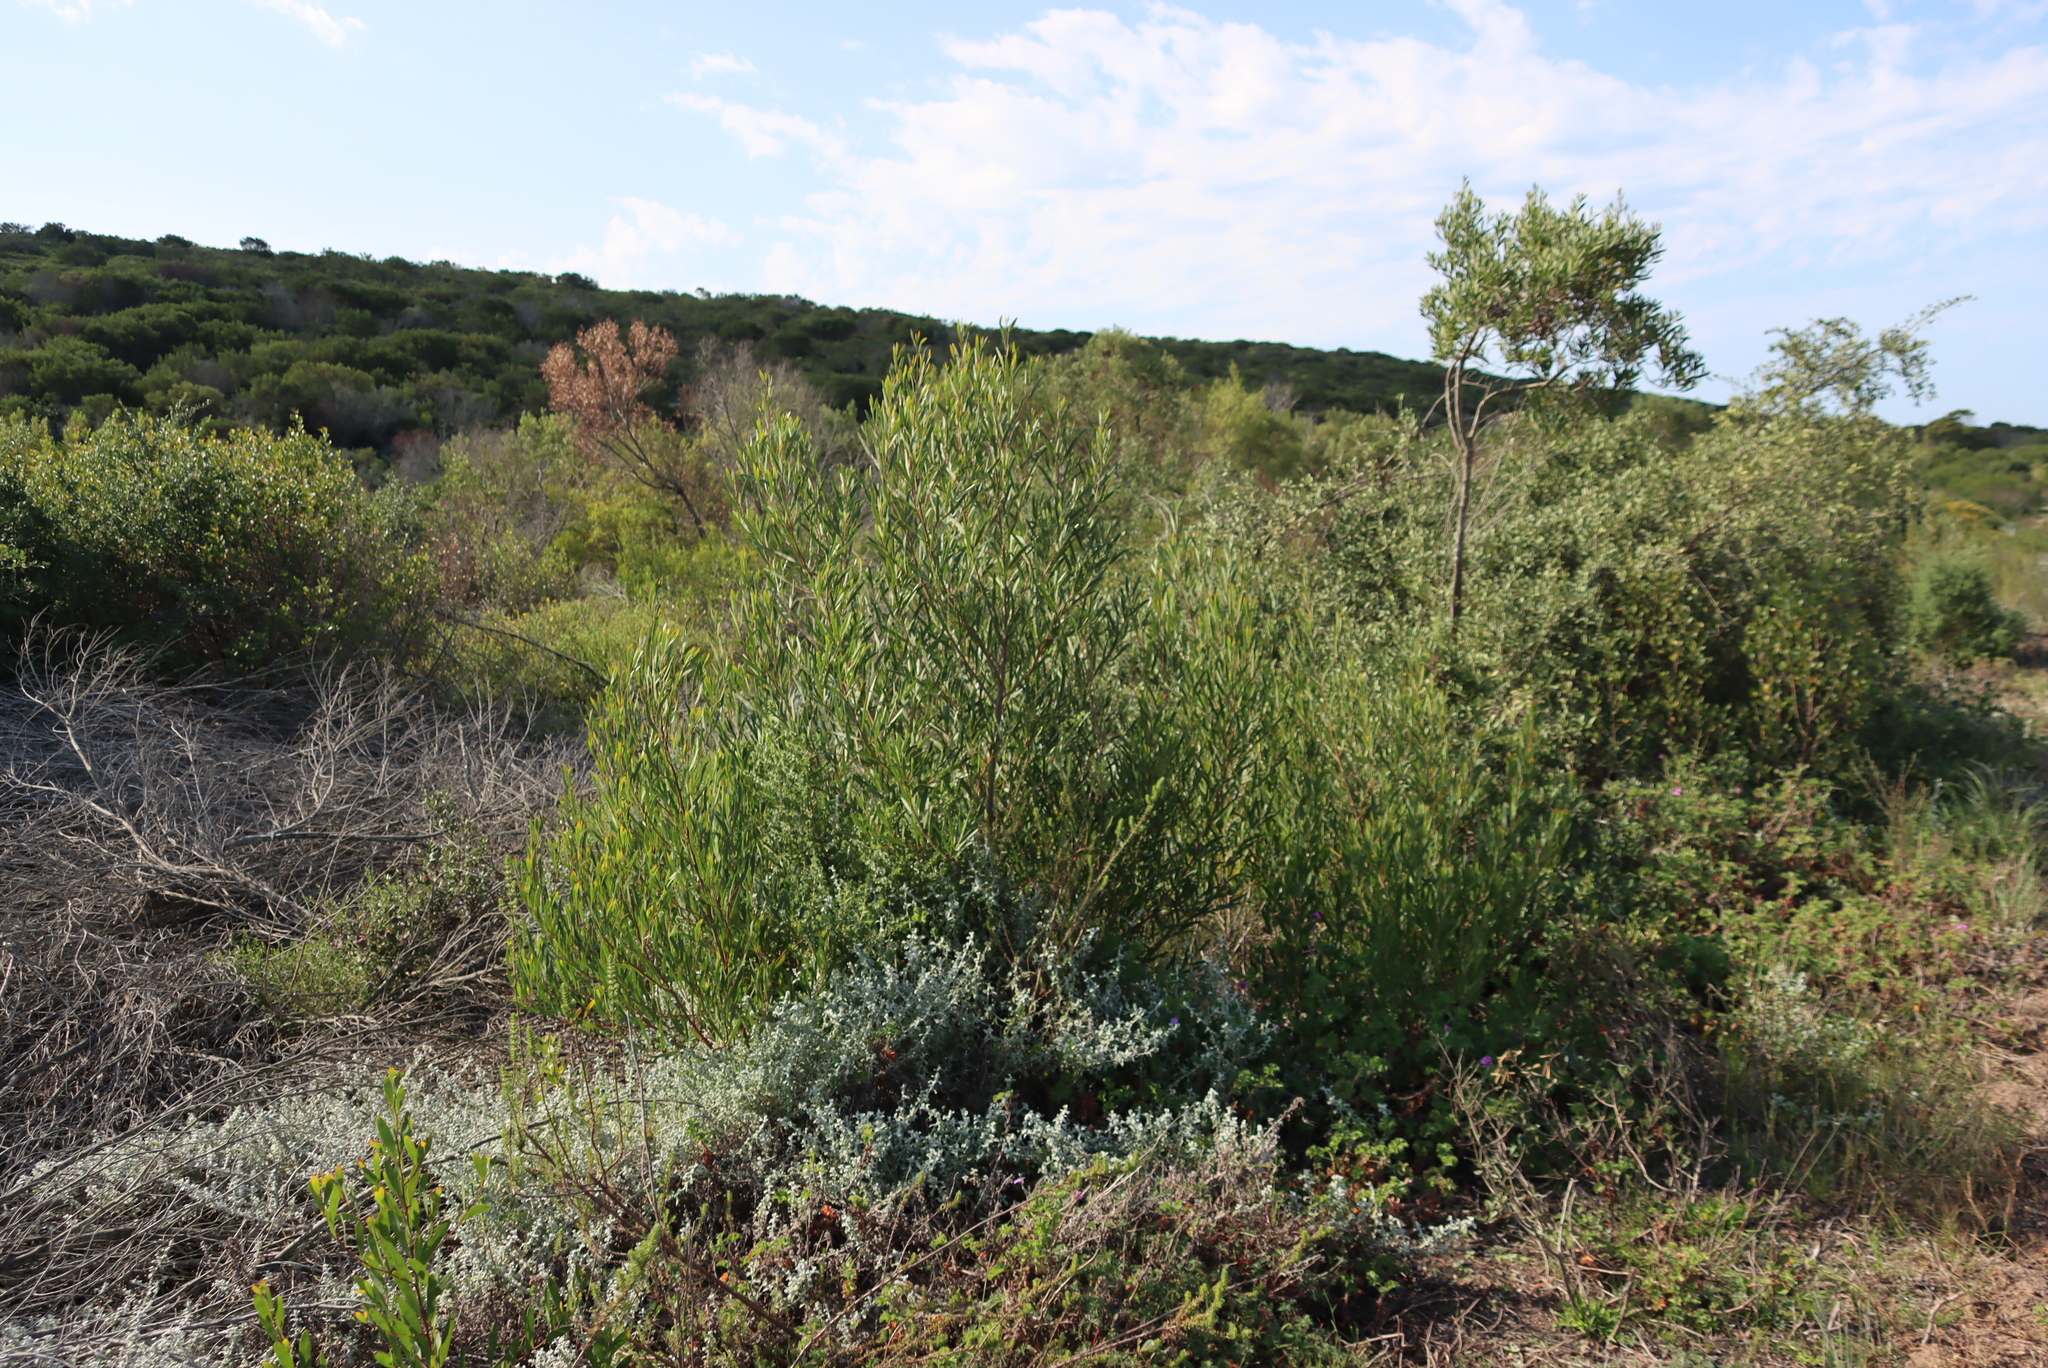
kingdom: Plantae
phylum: Tracheophyta
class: Magnoliopsida
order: Fabales
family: Fabaceae
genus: Acacia
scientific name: Acacia cyclops
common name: Coastal wattle
